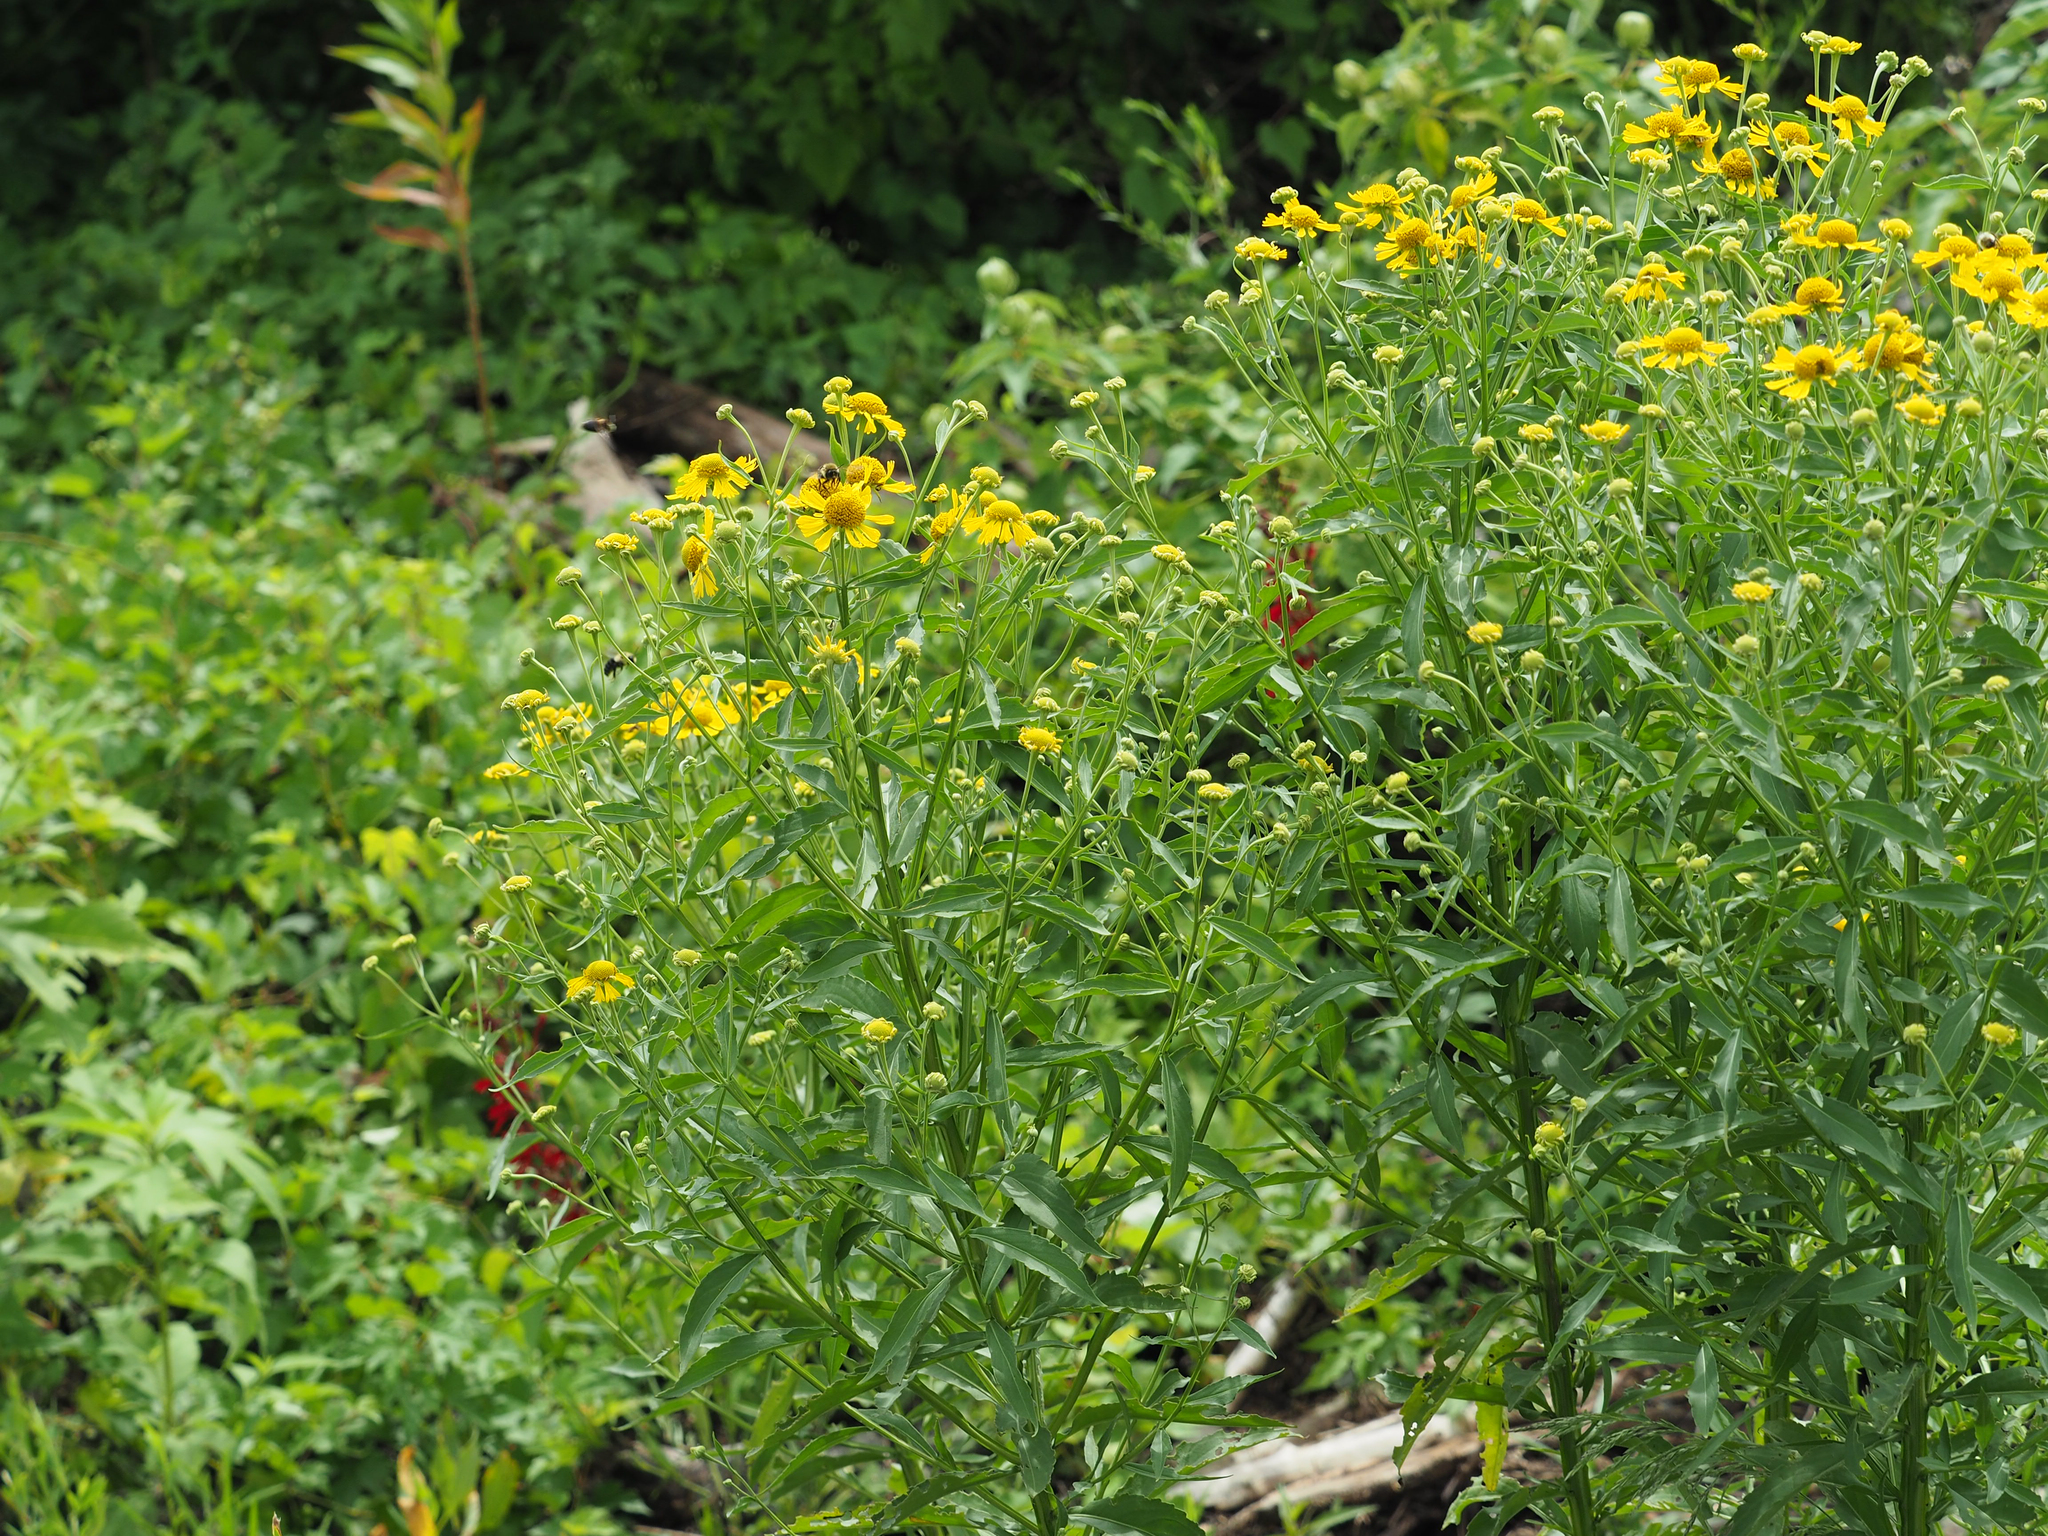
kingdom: Plantae
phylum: Tracheophyta
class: Magnoliopsida
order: Asterales
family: Asteraceae
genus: Helenium
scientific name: Helenium autumnale
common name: Sneezeweed
